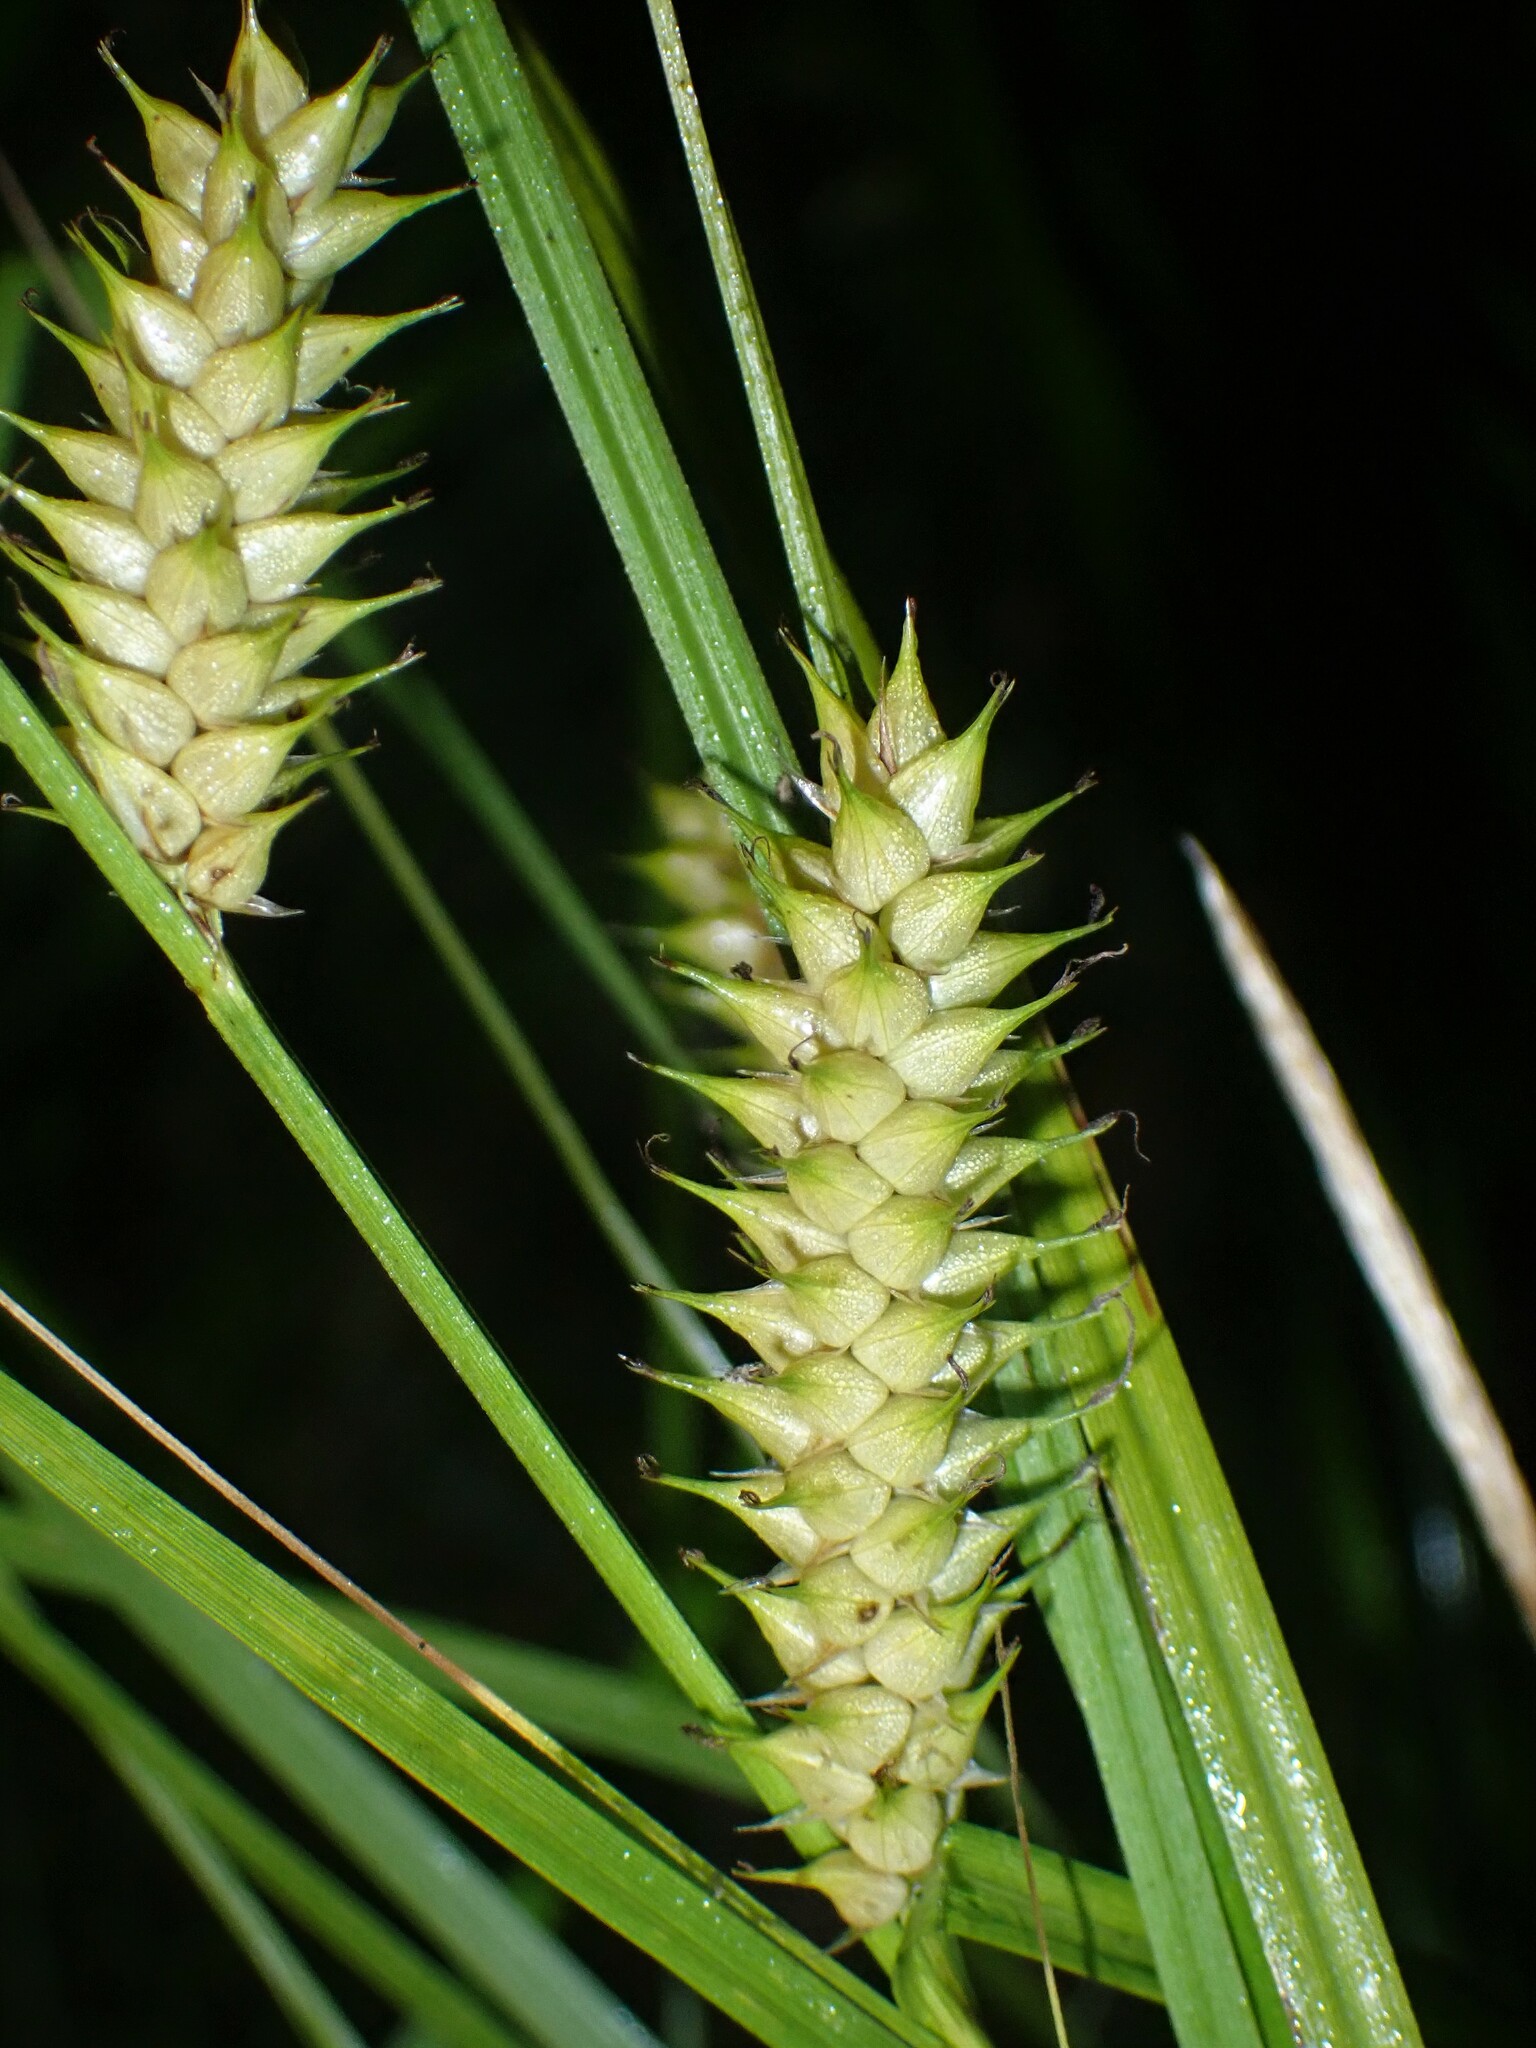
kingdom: Plantae
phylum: Tracheophyta
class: Liliopsida
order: Poales
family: Cyperaceae
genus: Carex
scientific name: Carex vesicaria
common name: Bladder-sedge
